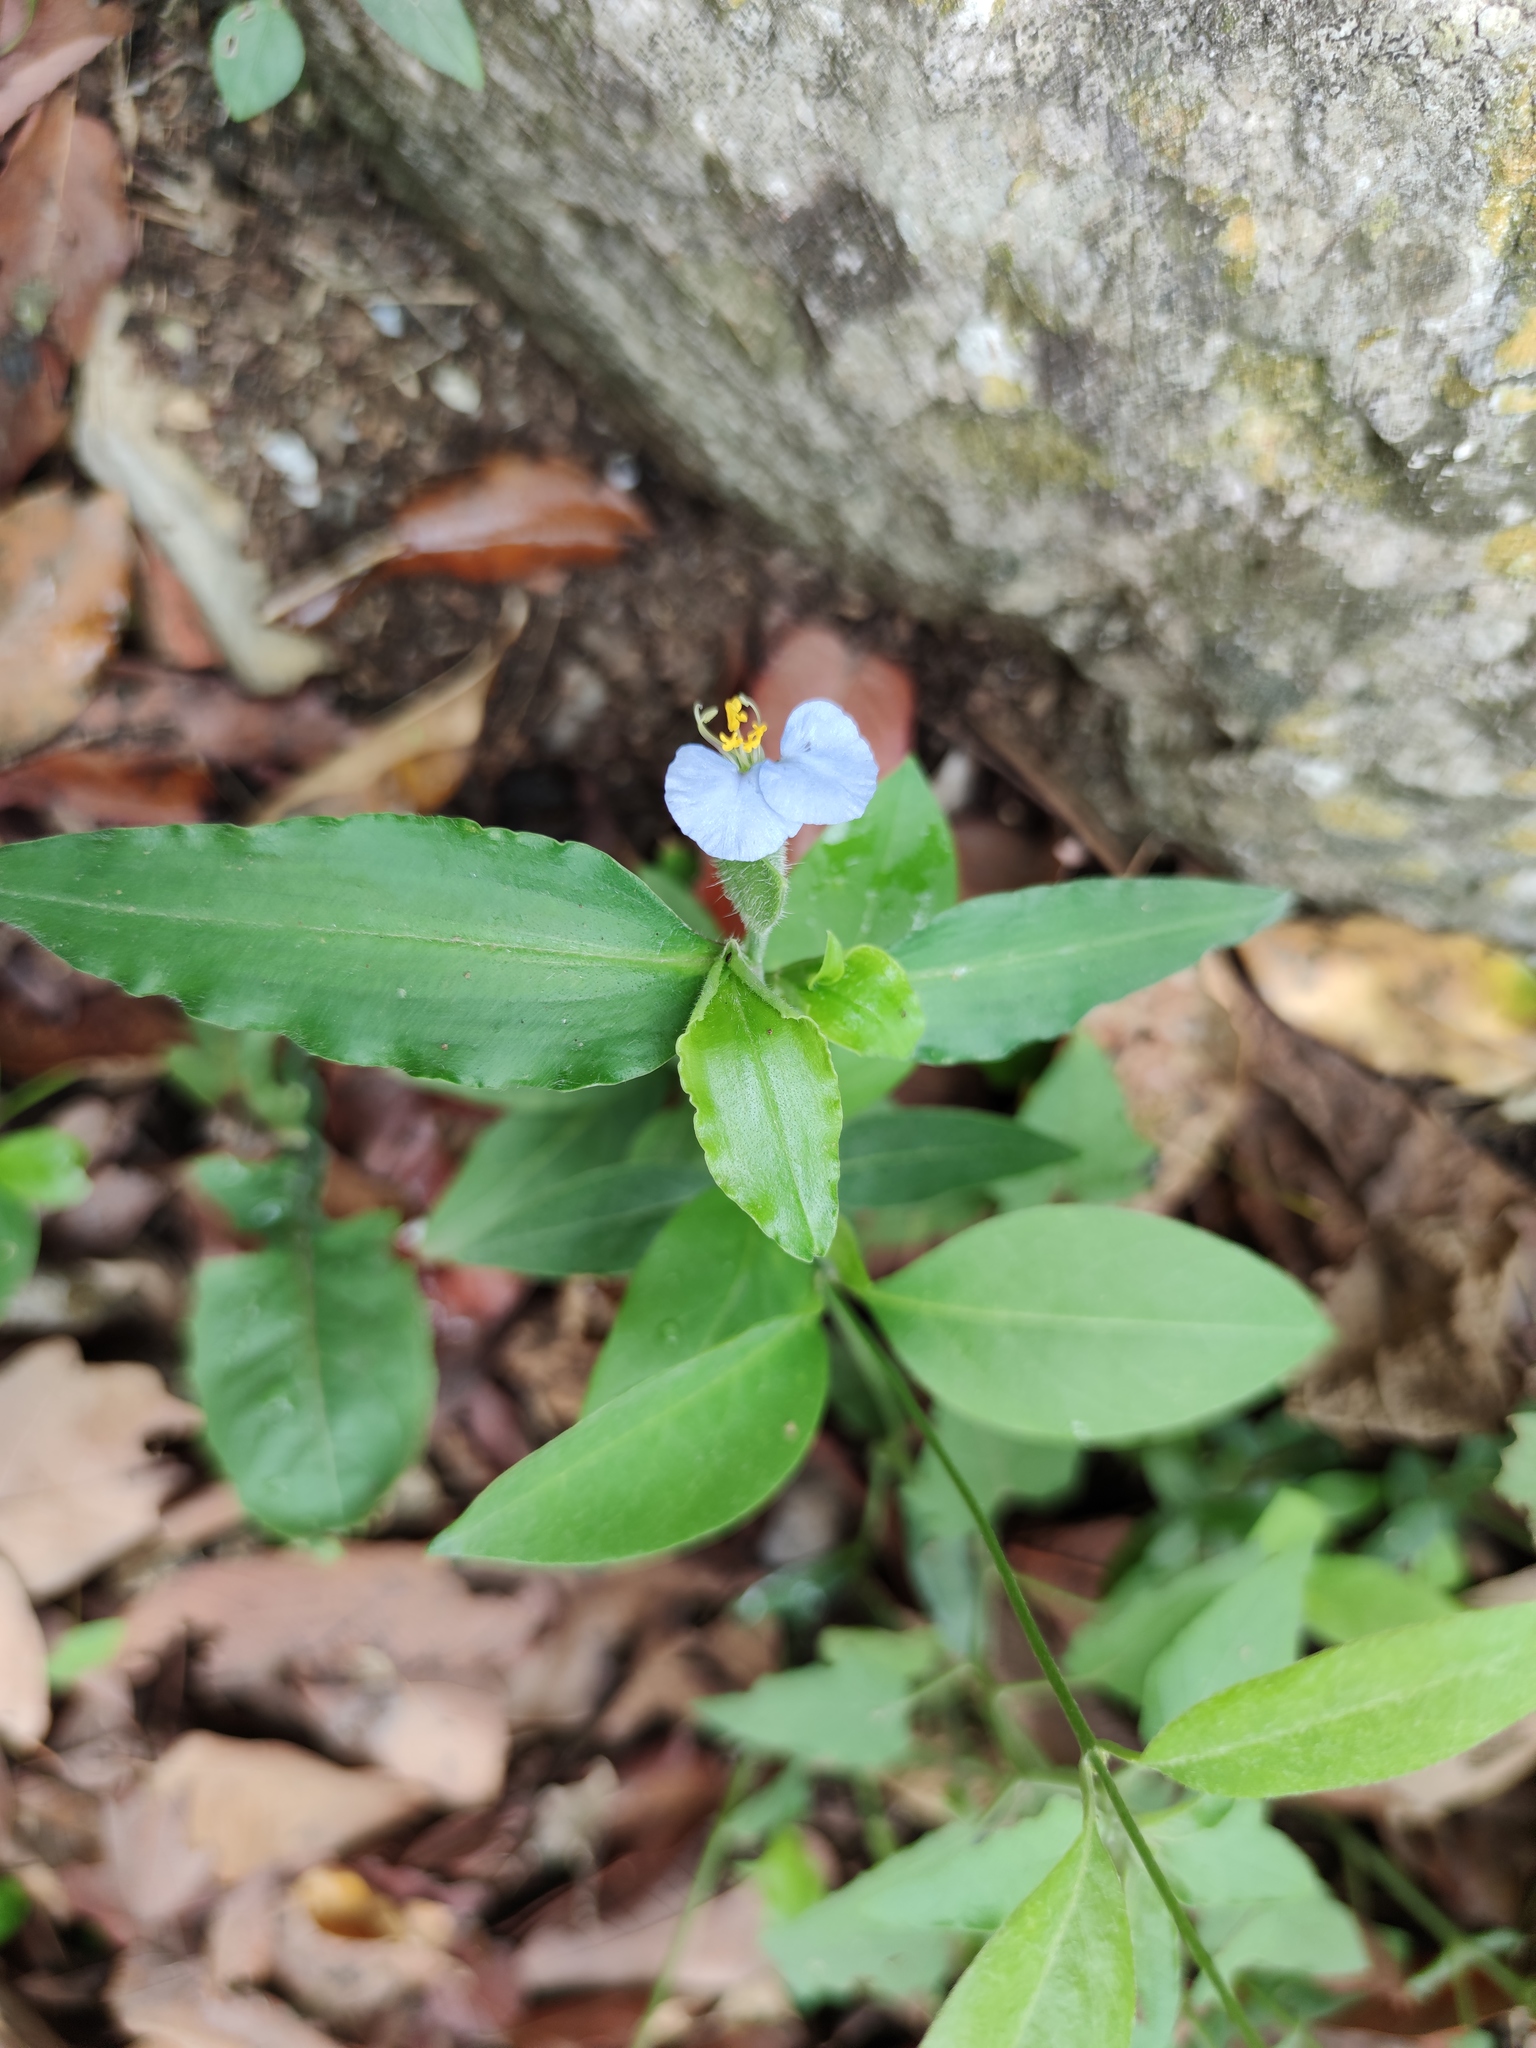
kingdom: Plantae
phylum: Tracheophyta
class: Liliopsida
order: Commelinales
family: Commelinaceae
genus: Commelina
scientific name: Commelina erecta
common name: Blousel blommetjie
